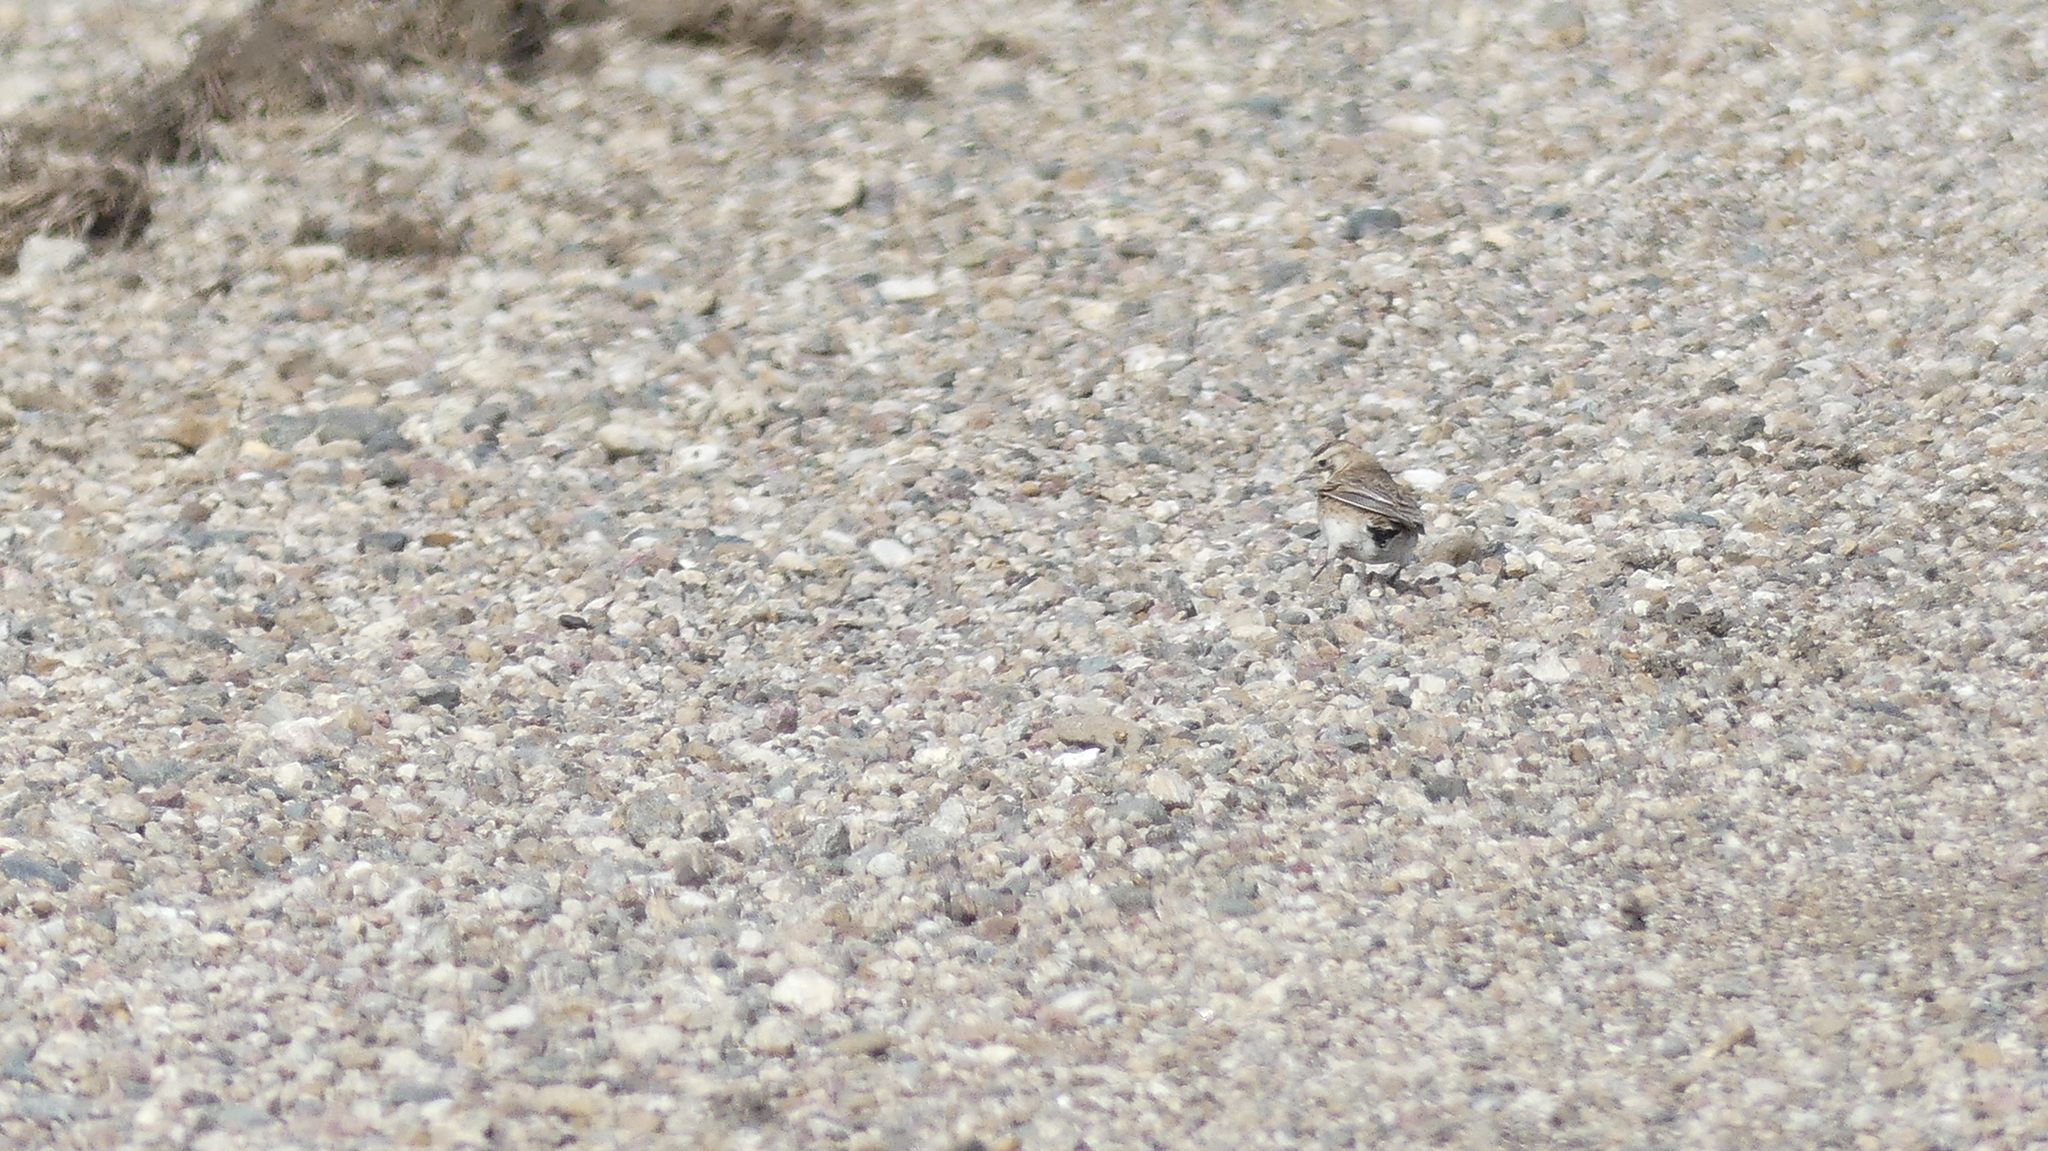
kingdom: Animalia
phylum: Chordata
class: Aves
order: Passeriformes
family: Alaudidae
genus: Eremophila
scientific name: Eremophila alpestris
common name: Horned lark
